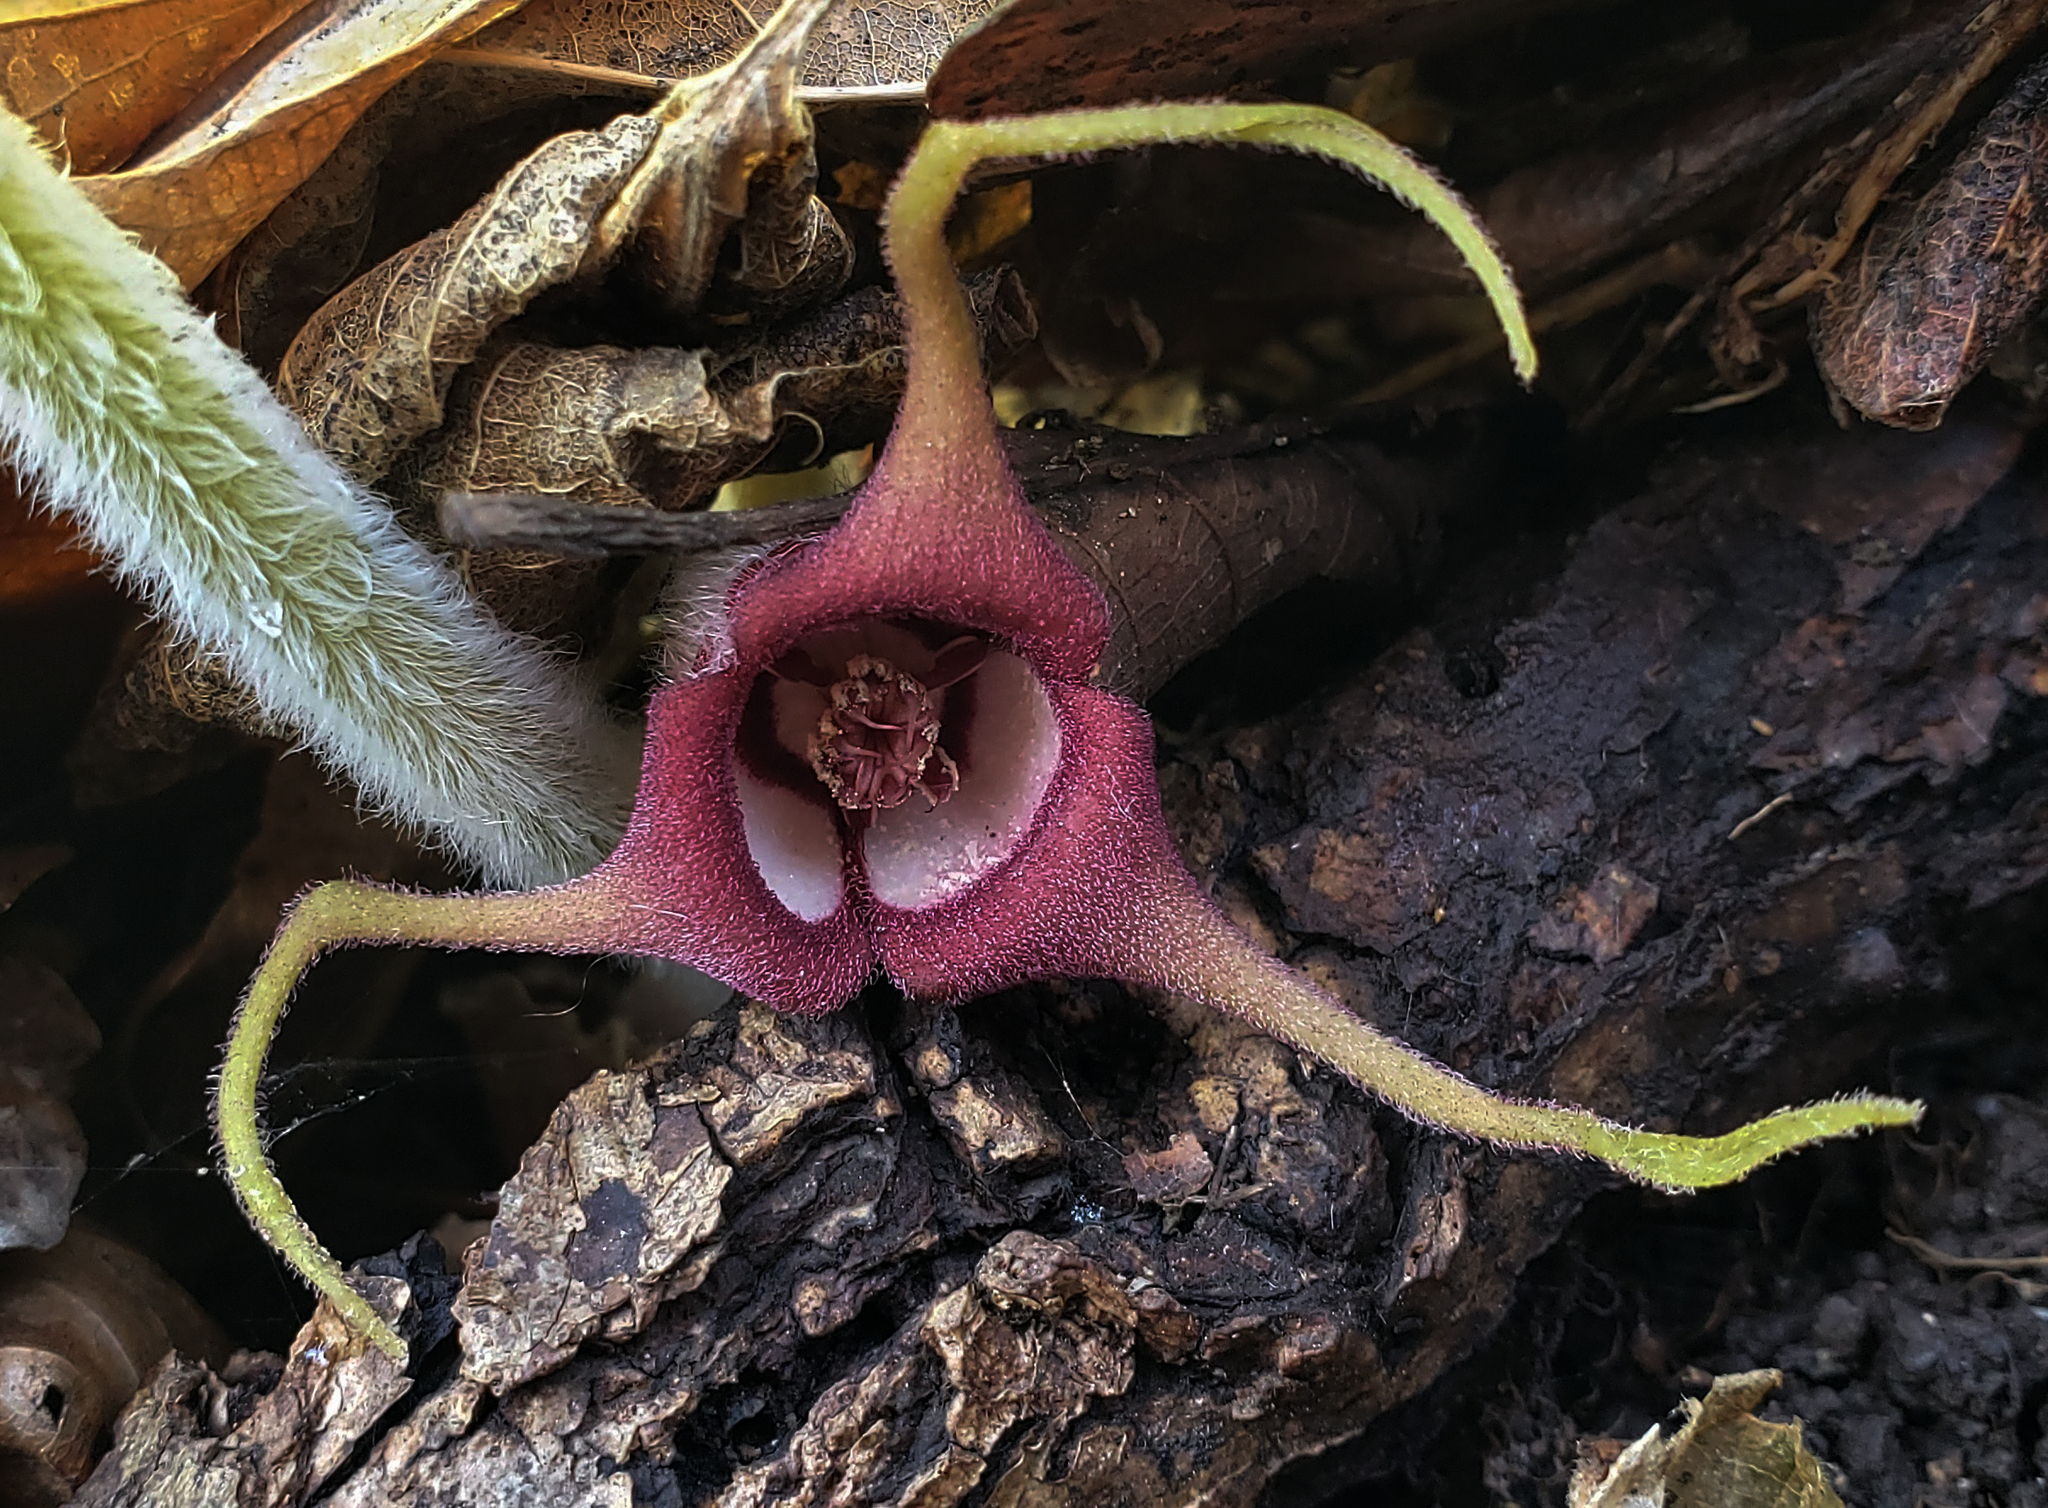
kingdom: Plantae
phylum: Tracheophyta
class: Magnoliopsida
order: Piperales
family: Aristolochiaceae
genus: Asarum
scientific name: Asarum canadense
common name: Wild ginger
